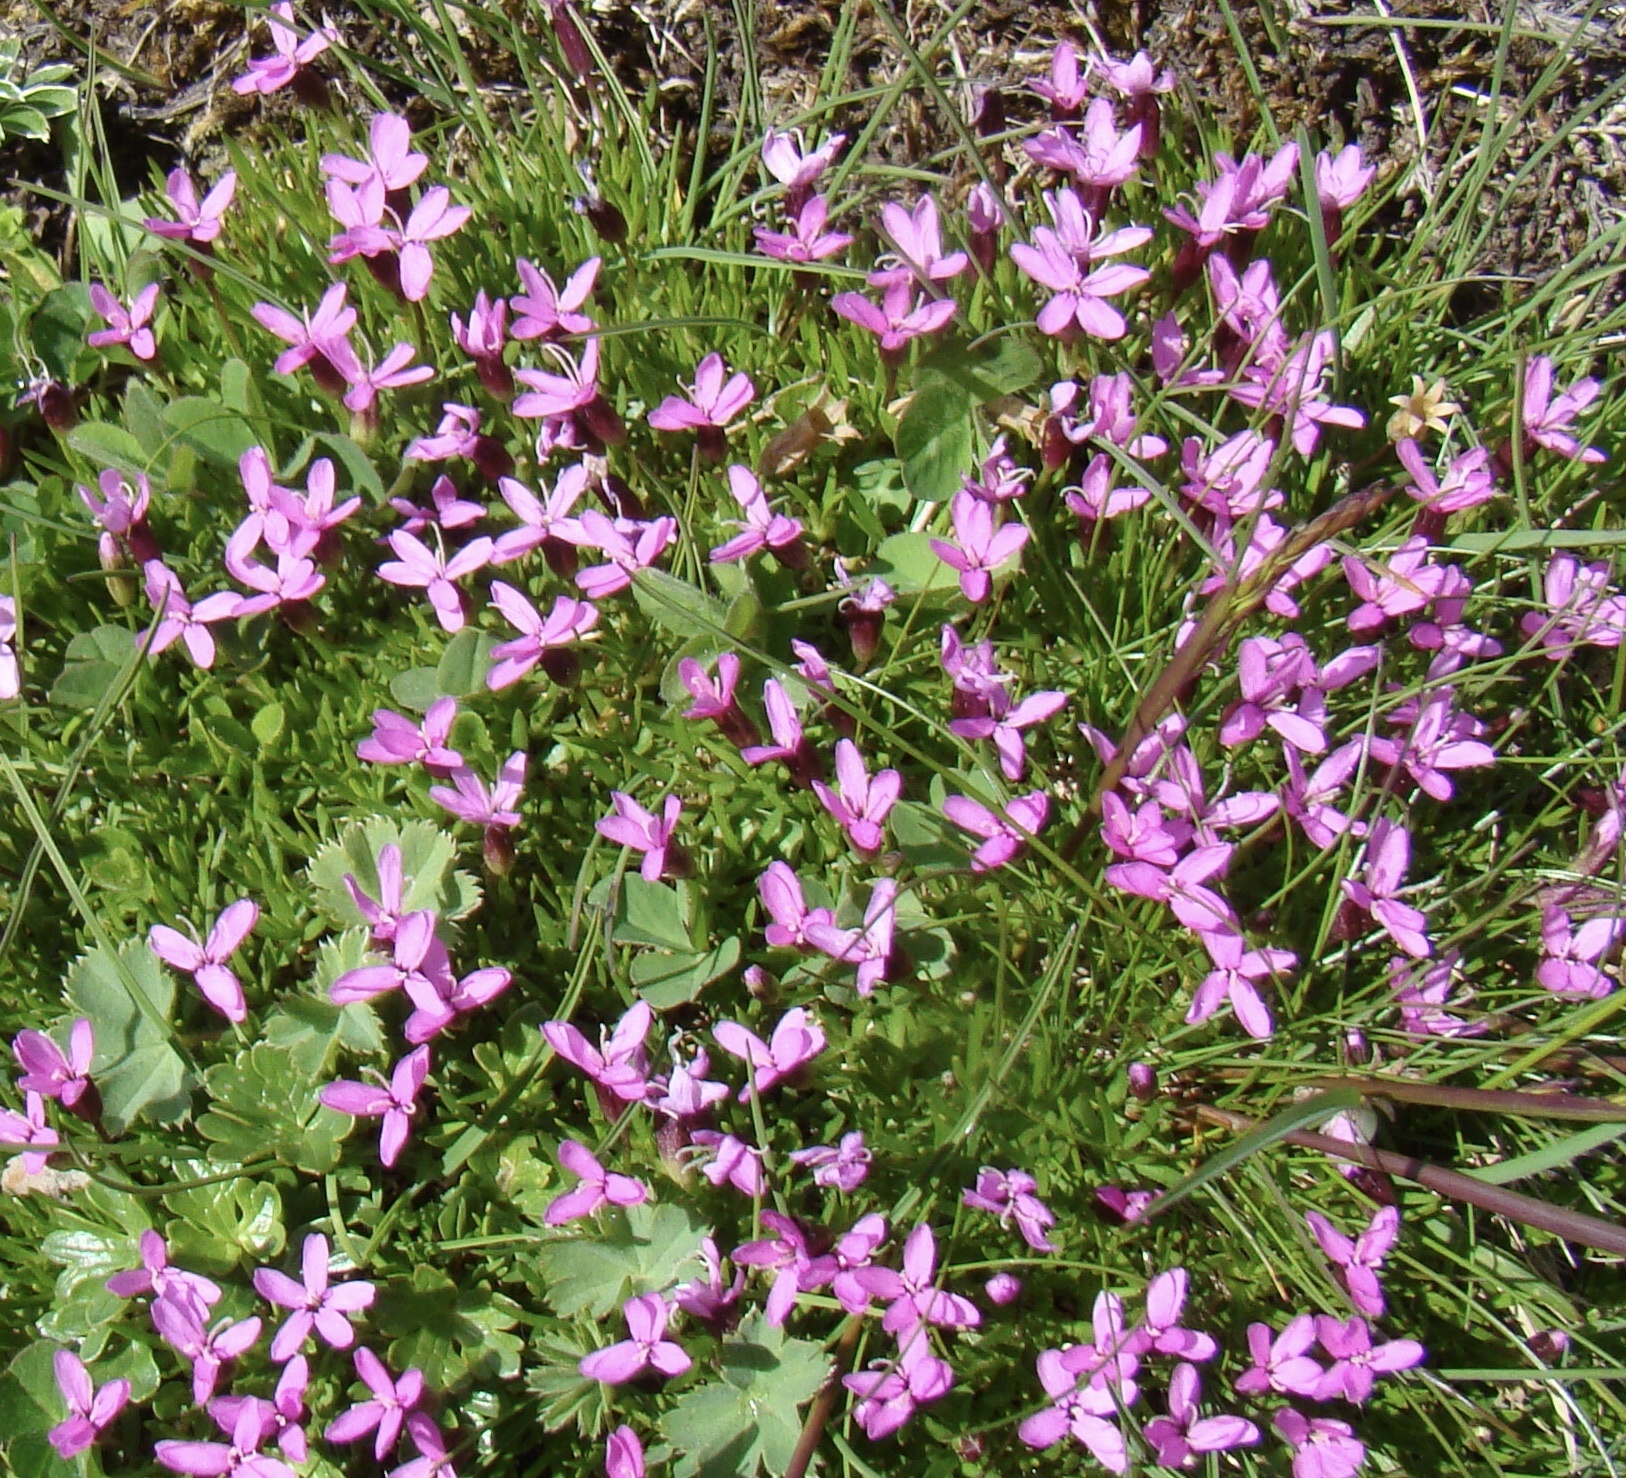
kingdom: Plantae
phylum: Tracheophyta
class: Magnoliopsida
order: Caryophyllales
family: Caryophyllaceae
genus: Silene
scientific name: Silene acaulis
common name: Moss campion
